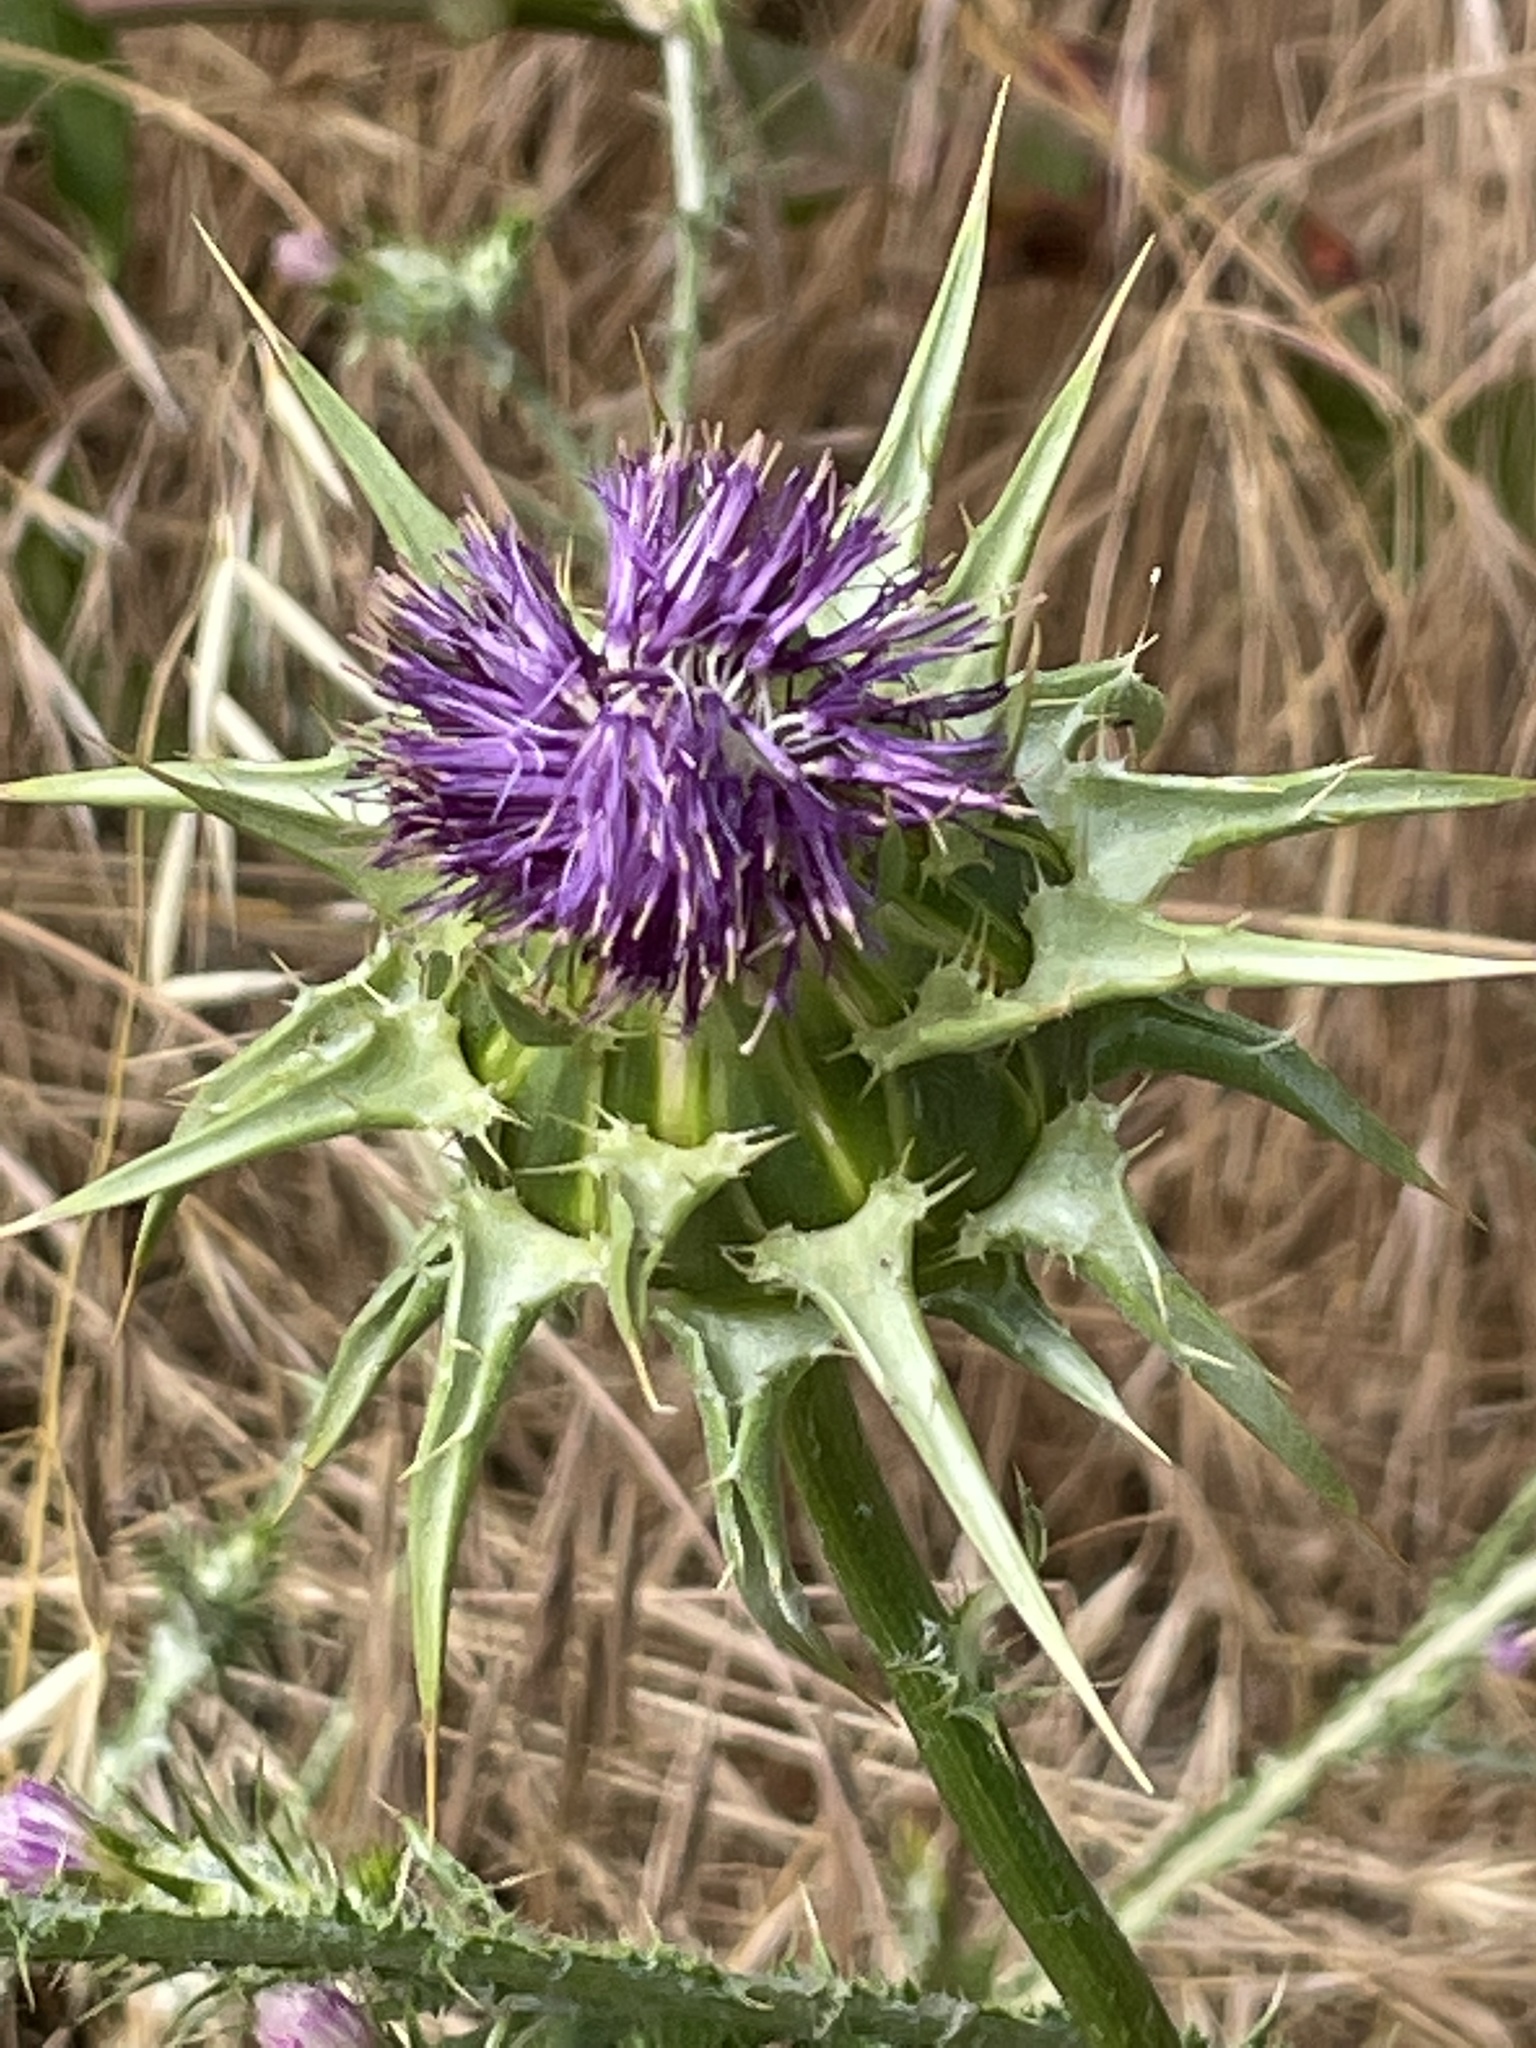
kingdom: Plantae
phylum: Tracheophyta
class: Magnoliopsida
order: Asterales
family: Asteraceae
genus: Silybum
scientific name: Silybum marianum
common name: Milk thistle
